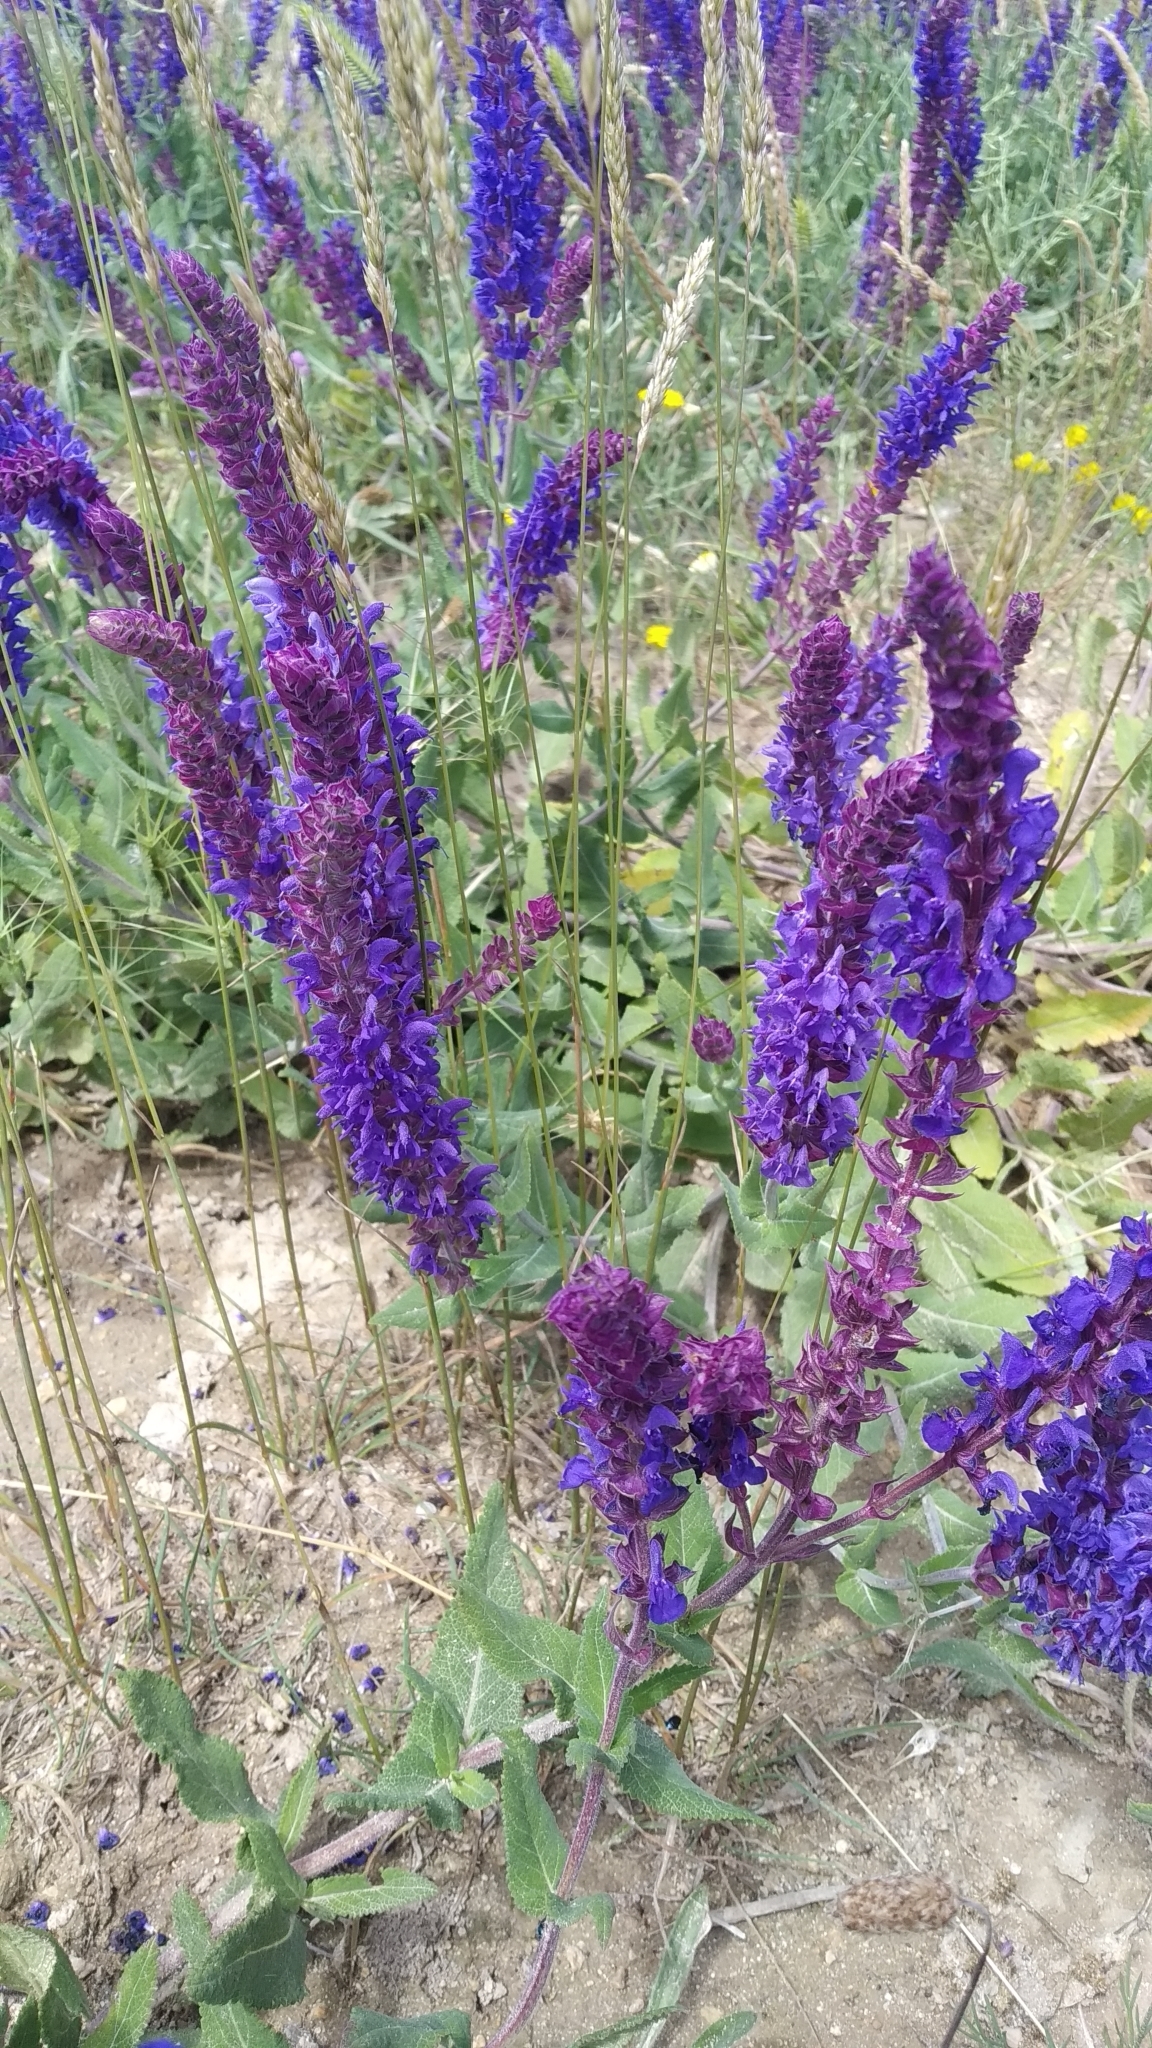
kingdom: Plantae
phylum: Tracheophyta
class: Magnoliopsida
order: Lamiales
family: Lamiaceae
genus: Salvia
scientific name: Salvia nemorosa
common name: Balkan clary
